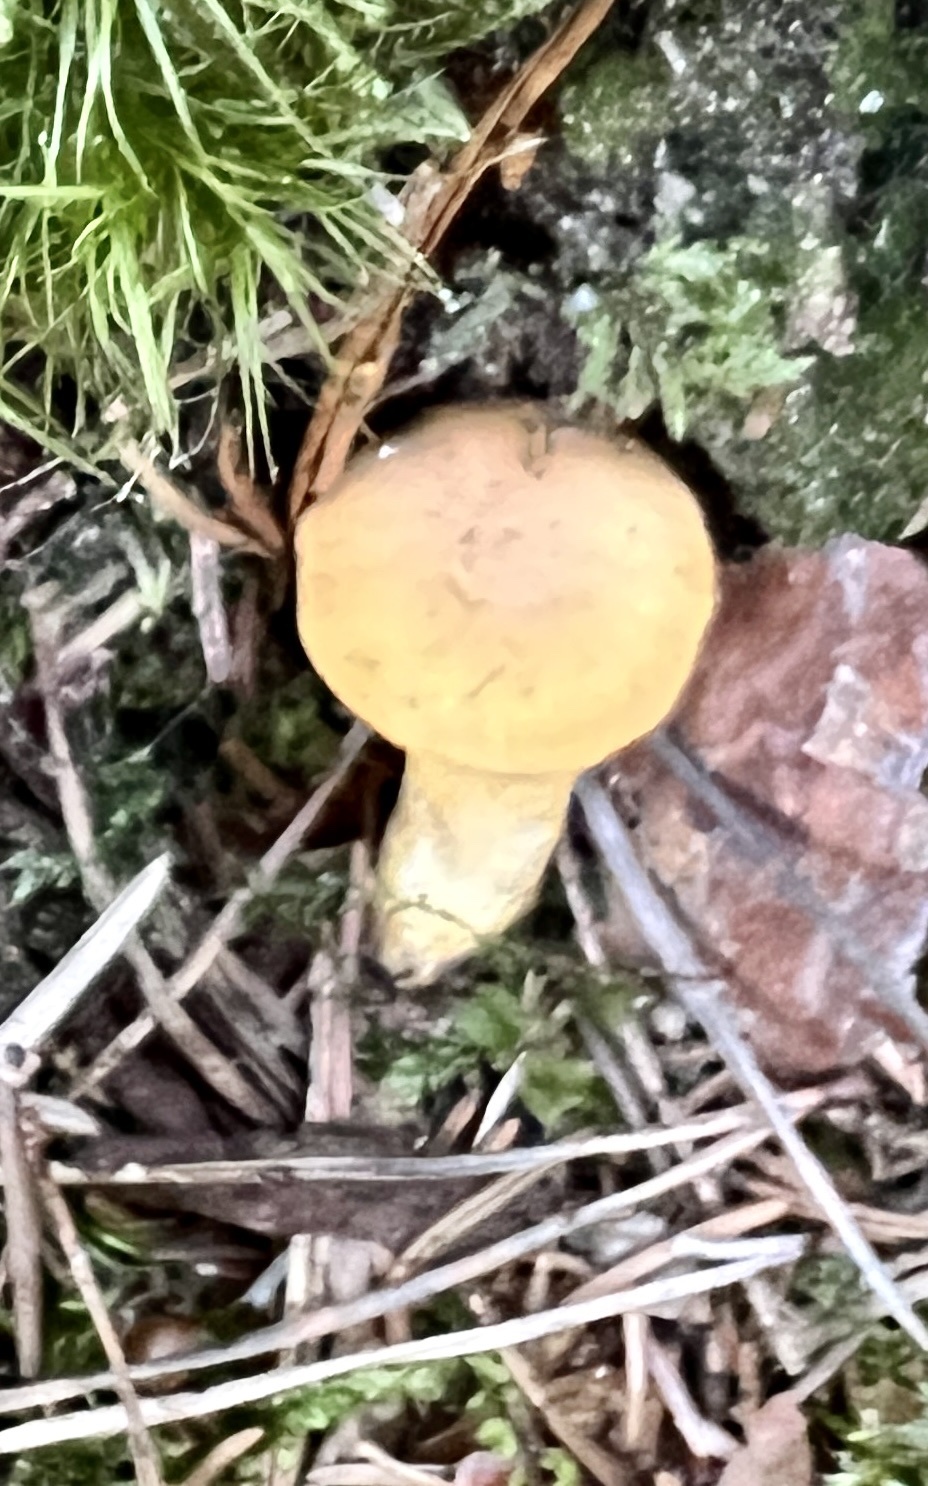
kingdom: Fungi
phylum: Basidiomycota
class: Agaricomycetes
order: Cantharellales
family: Hydnaceae
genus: Cantharellus
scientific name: Cantharellus cibarius
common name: Chanterelle
